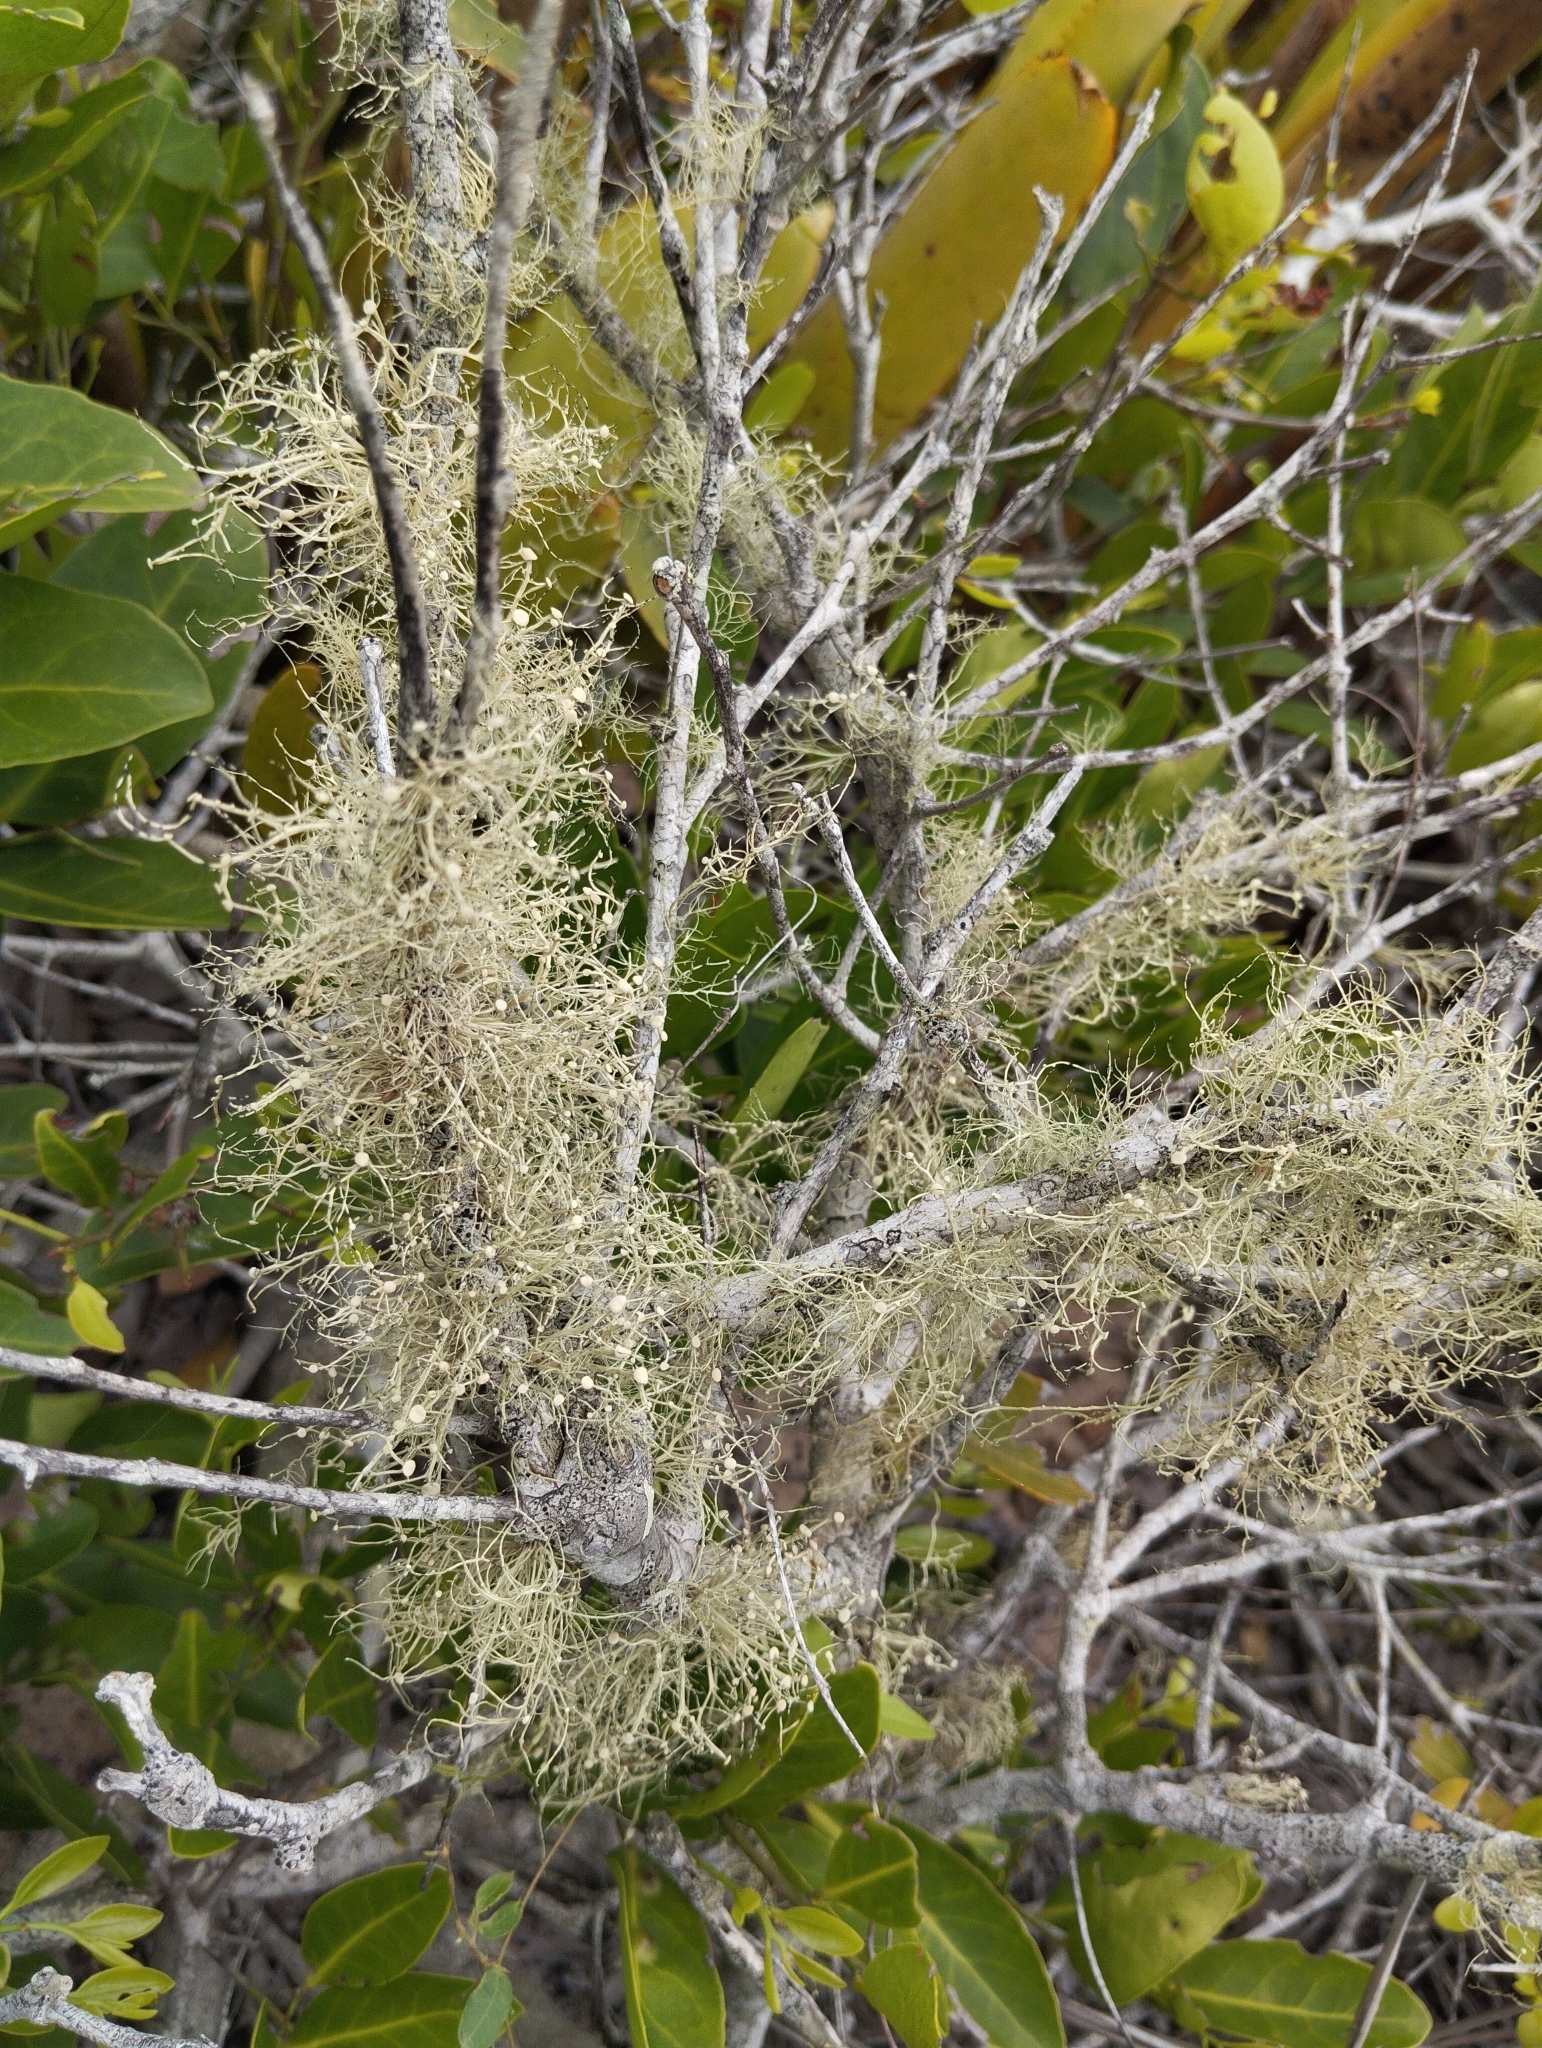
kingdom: Fungi
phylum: Ascomycota
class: Lecanoromycetes
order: Lecanorales
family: Parmeliaceae
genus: Usnea
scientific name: Usnea barbata
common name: Old man's beard lichen
